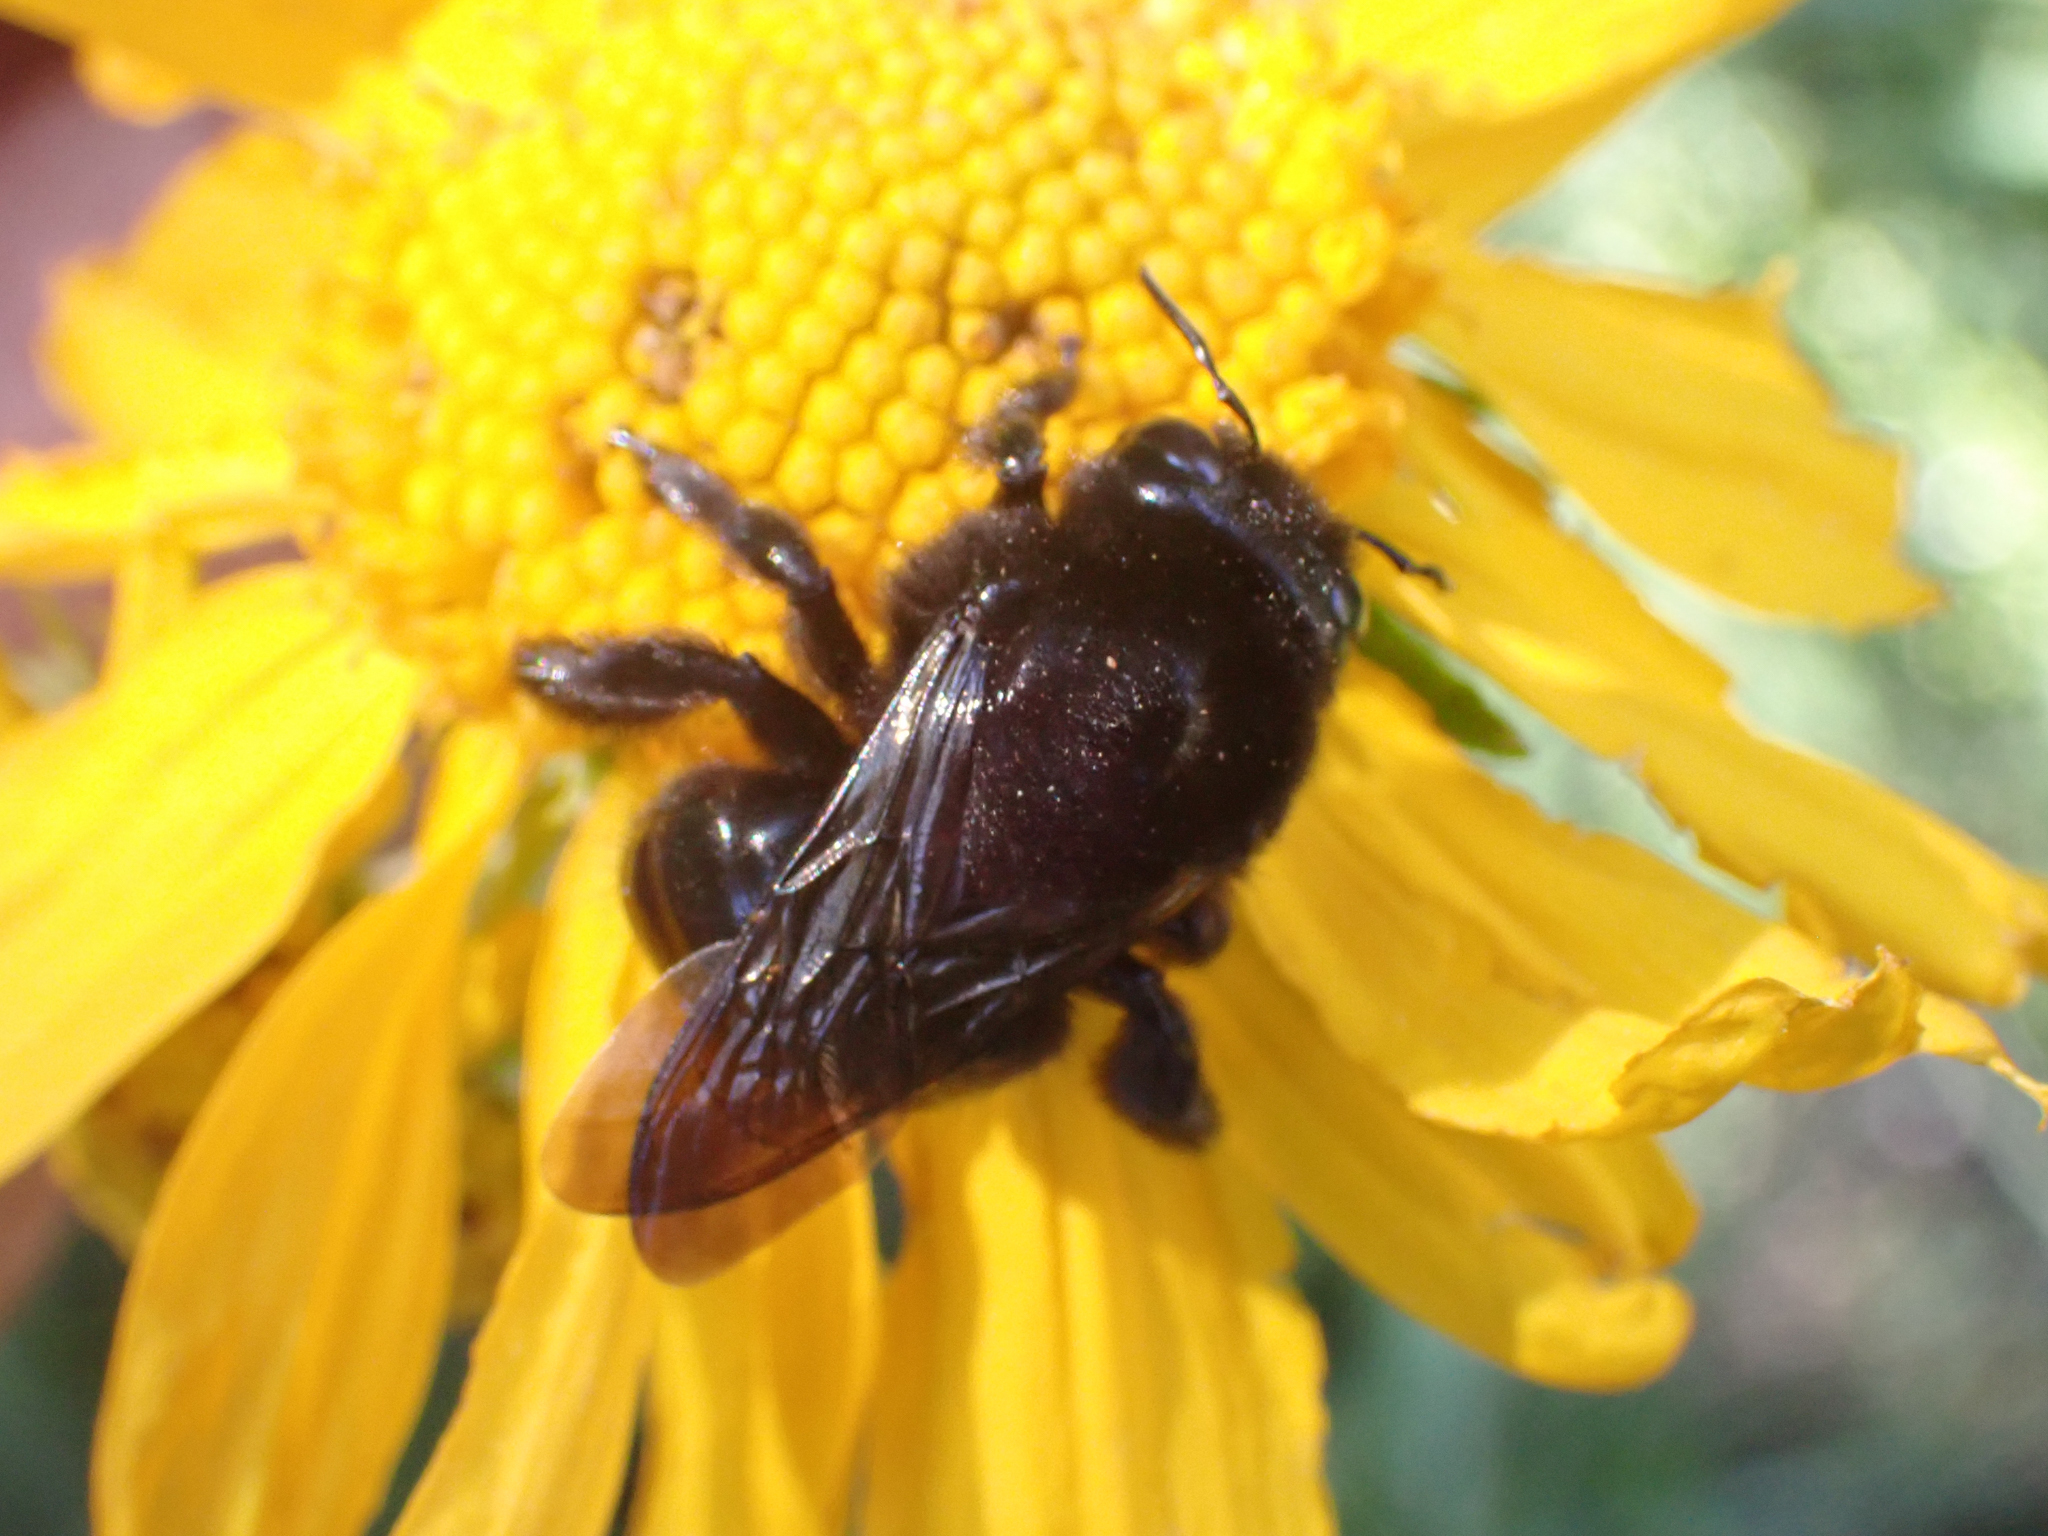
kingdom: Animalia
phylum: Arthropoda
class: Insecta
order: Hymenoptera
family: Apidae
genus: Xylocopa
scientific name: Xylocopa tabaniformis
